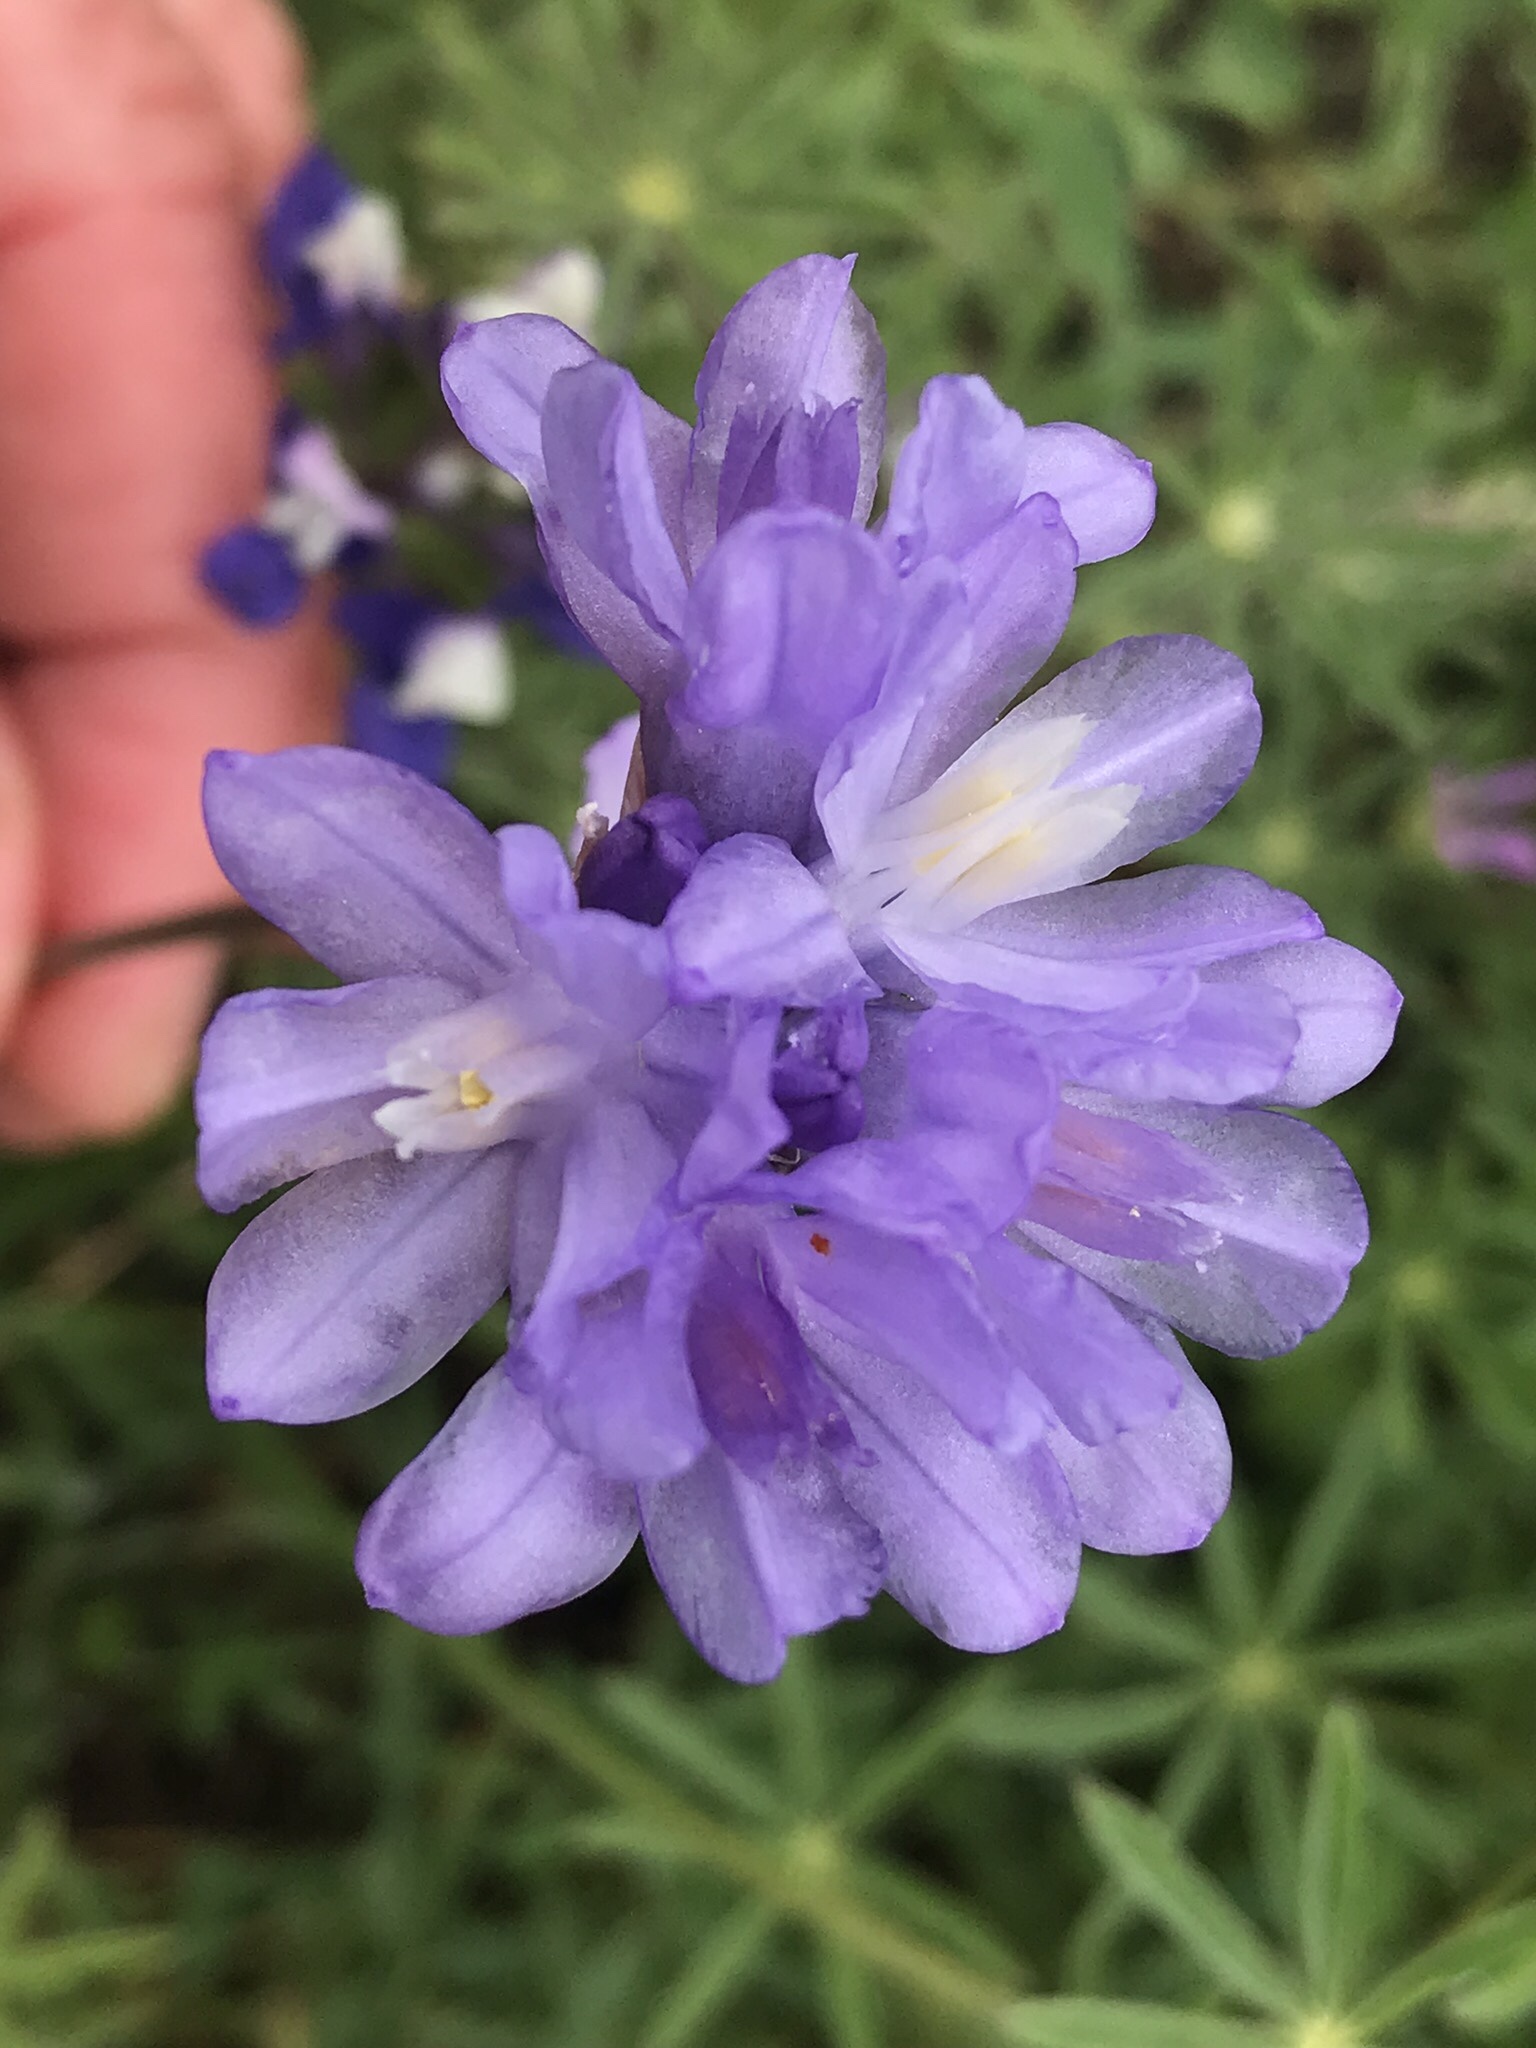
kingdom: Plantae
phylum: Tracheophyta
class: Liliopsida
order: Asparagales
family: Asparagaceae
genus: Dipterostemon
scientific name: Dipterostemon capitatus
